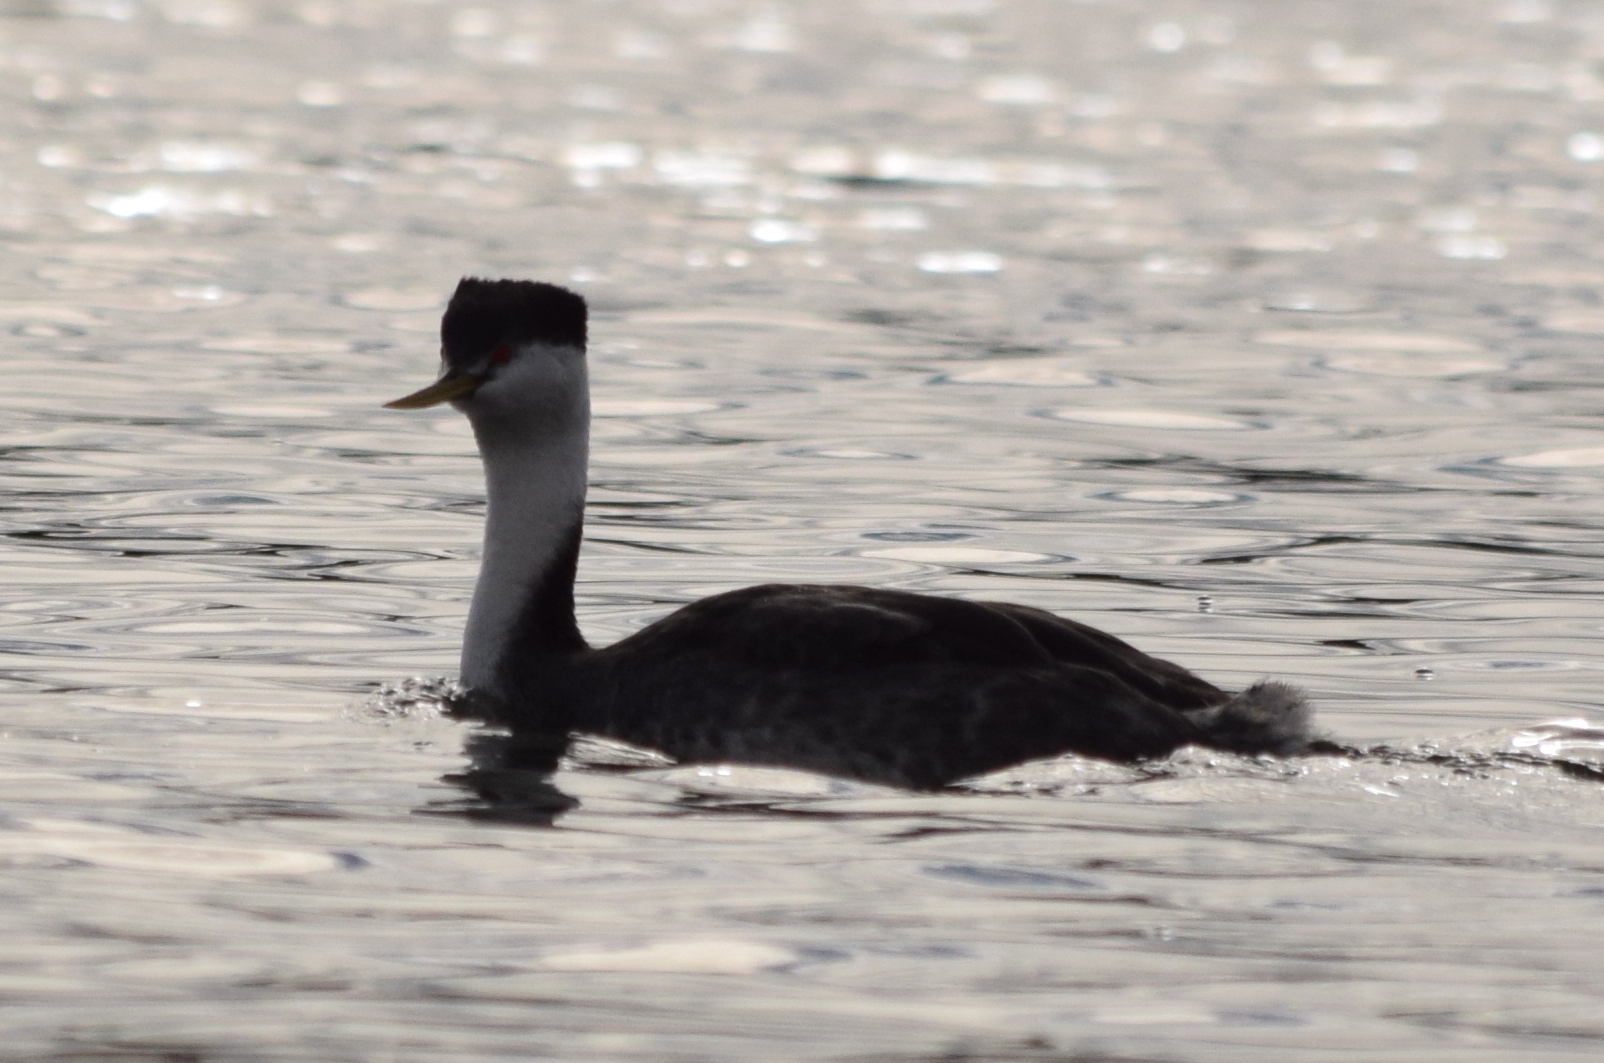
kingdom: Animalia
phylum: Chordata
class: Aves
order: Podicipediformes
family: Podicipedidae
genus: Aechmophorus
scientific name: Aechmophorus occidentalis
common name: Western grebe
